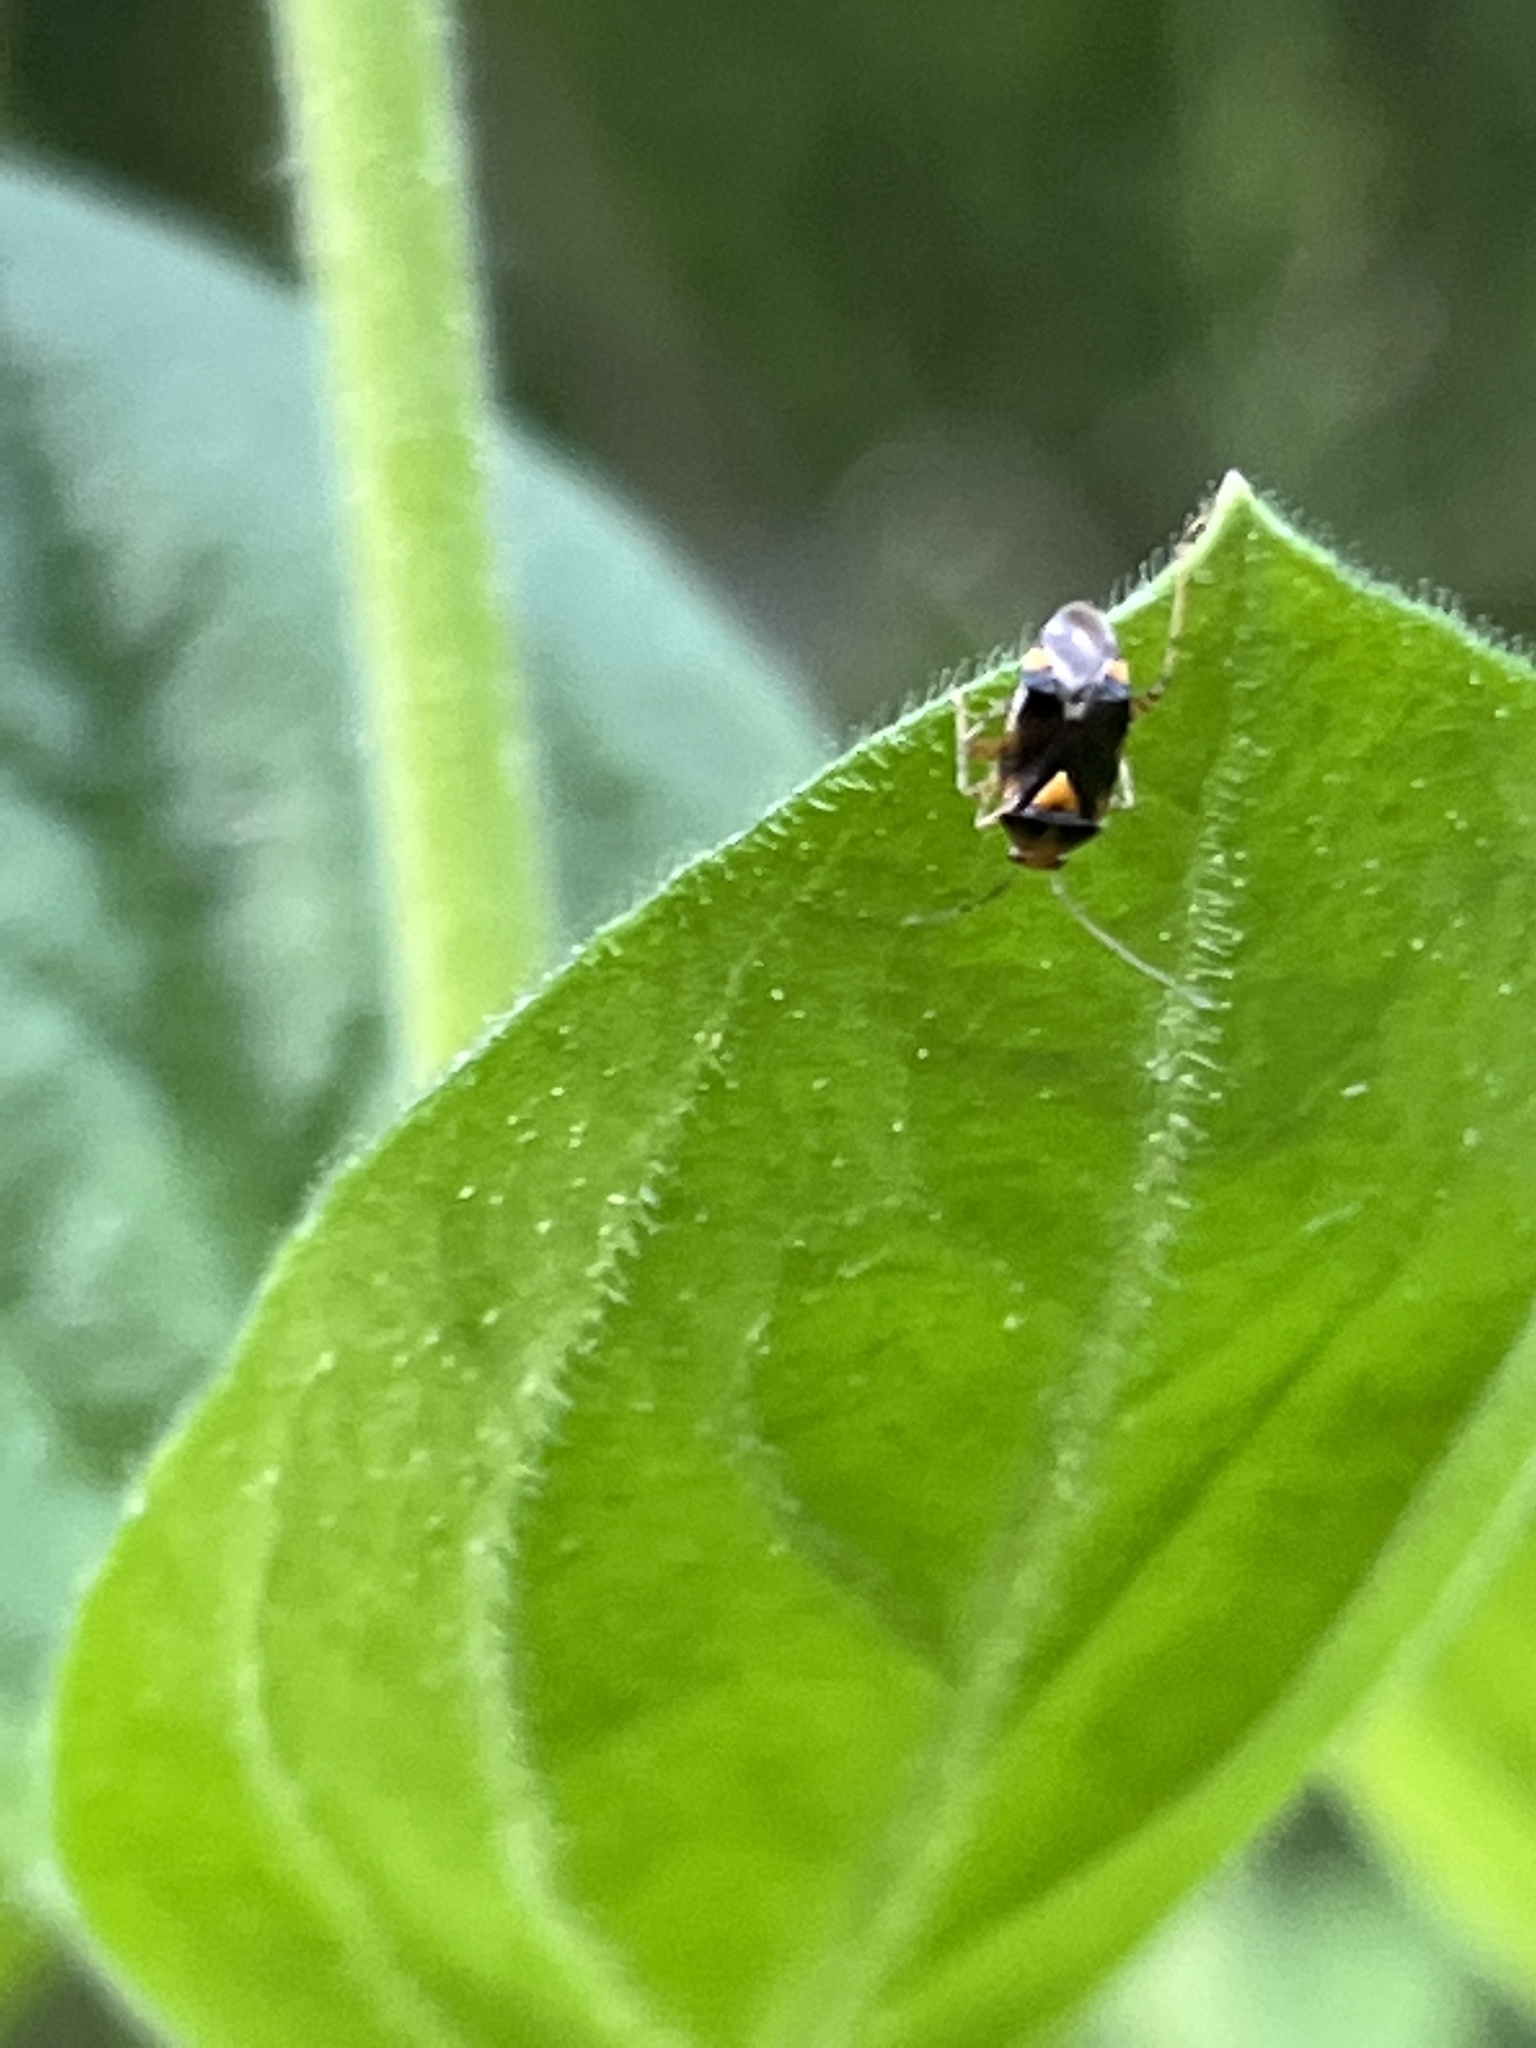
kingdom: Animalia
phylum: Arthropoda
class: Insecta
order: Hemiptera
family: Miridae
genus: Liocoris
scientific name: Liocoris tripustulatus
